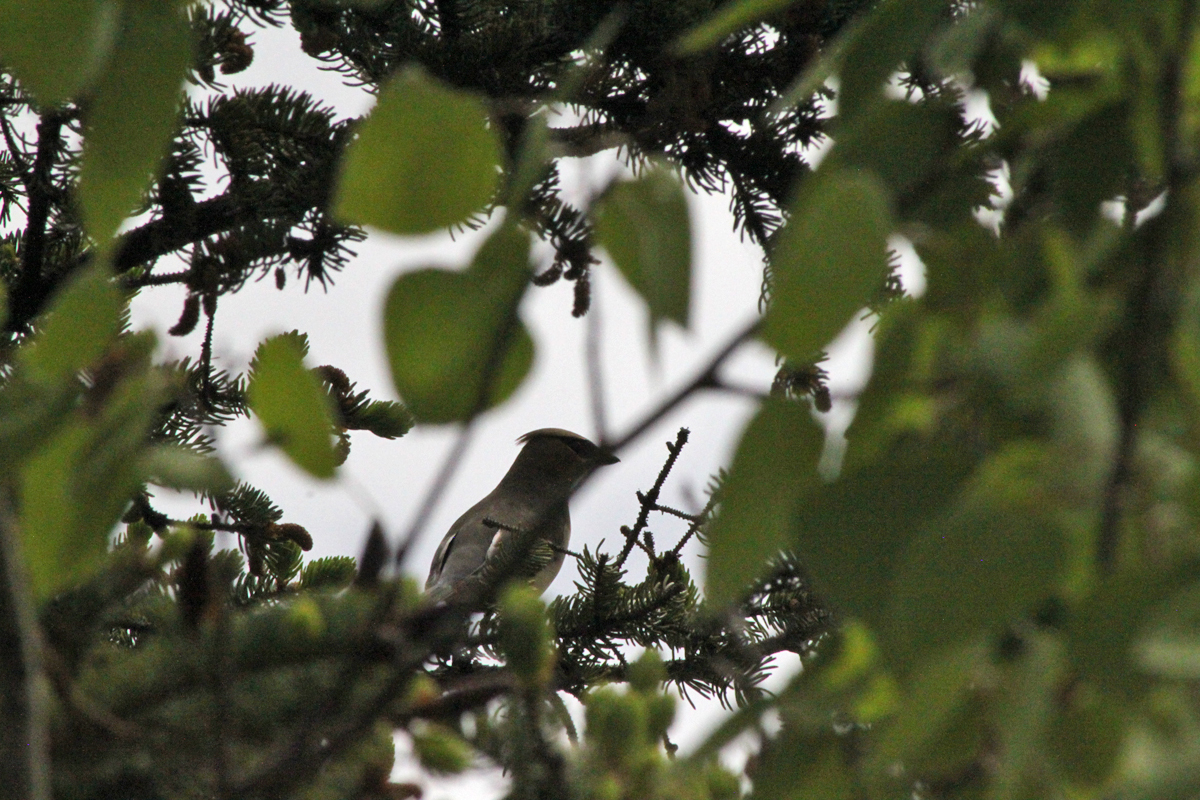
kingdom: Animalia
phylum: Chordata
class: Aves
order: Passeriformes
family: Bombycillidae
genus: Bombycilla
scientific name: Bombycilla cedrorum
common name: Cedar waxwing
